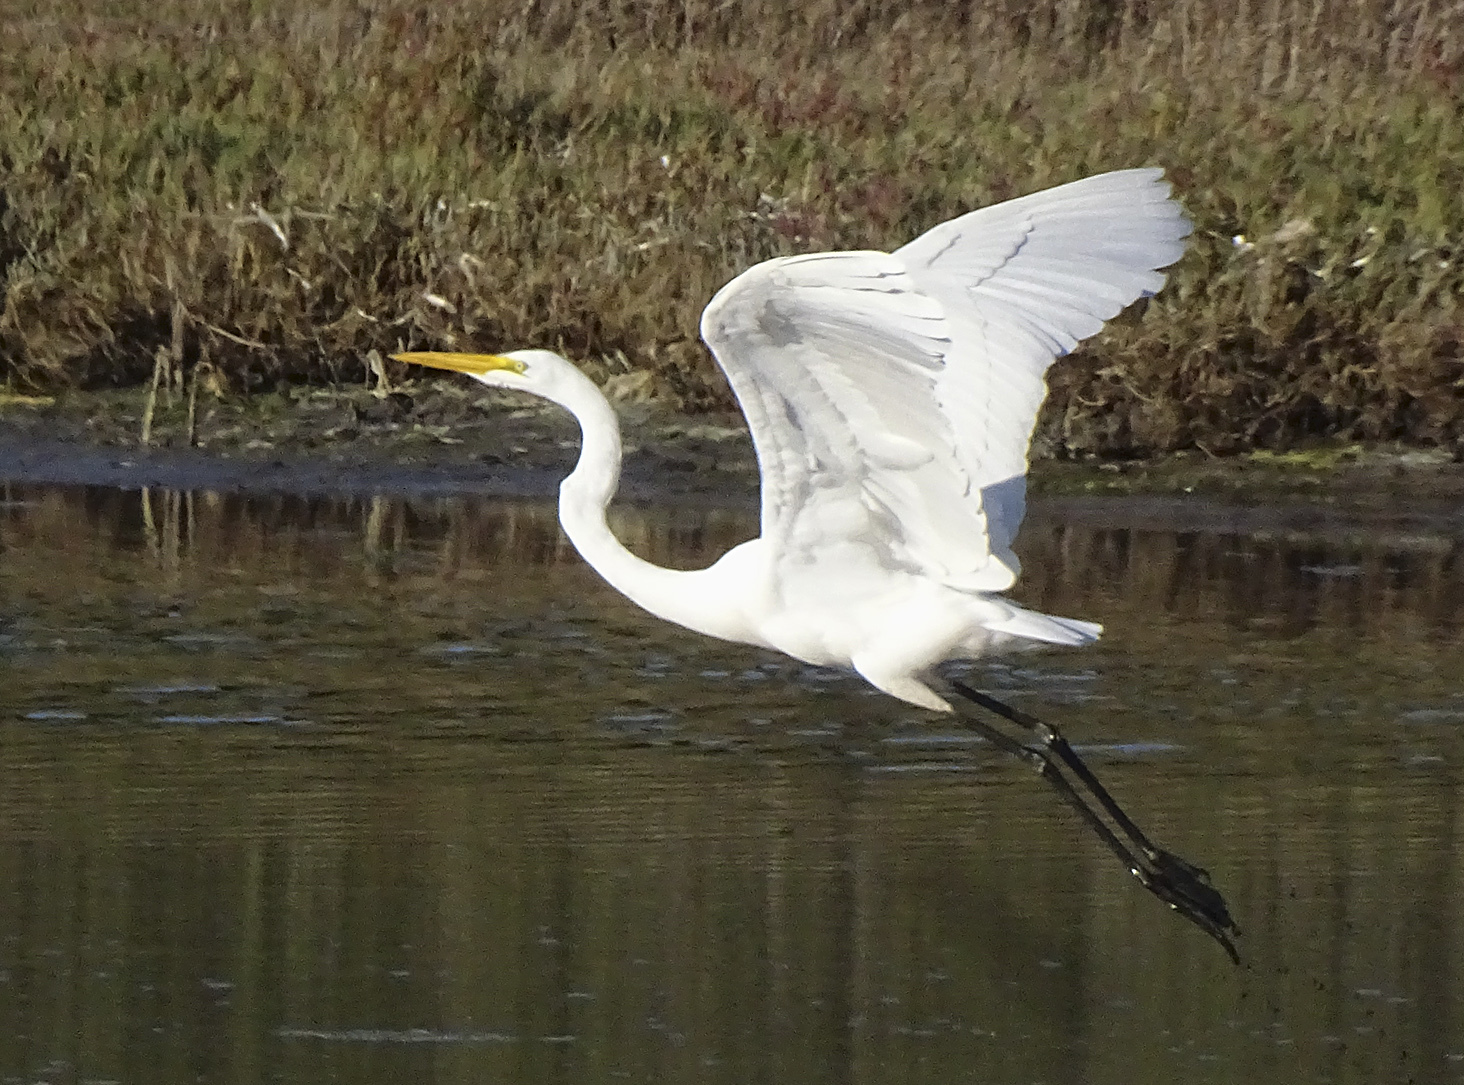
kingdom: Animalia
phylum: Chordata
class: Aves
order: Pelecaniformes
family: Ardeidae
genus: Ardea
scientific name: Ardea alba
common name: Great egret
